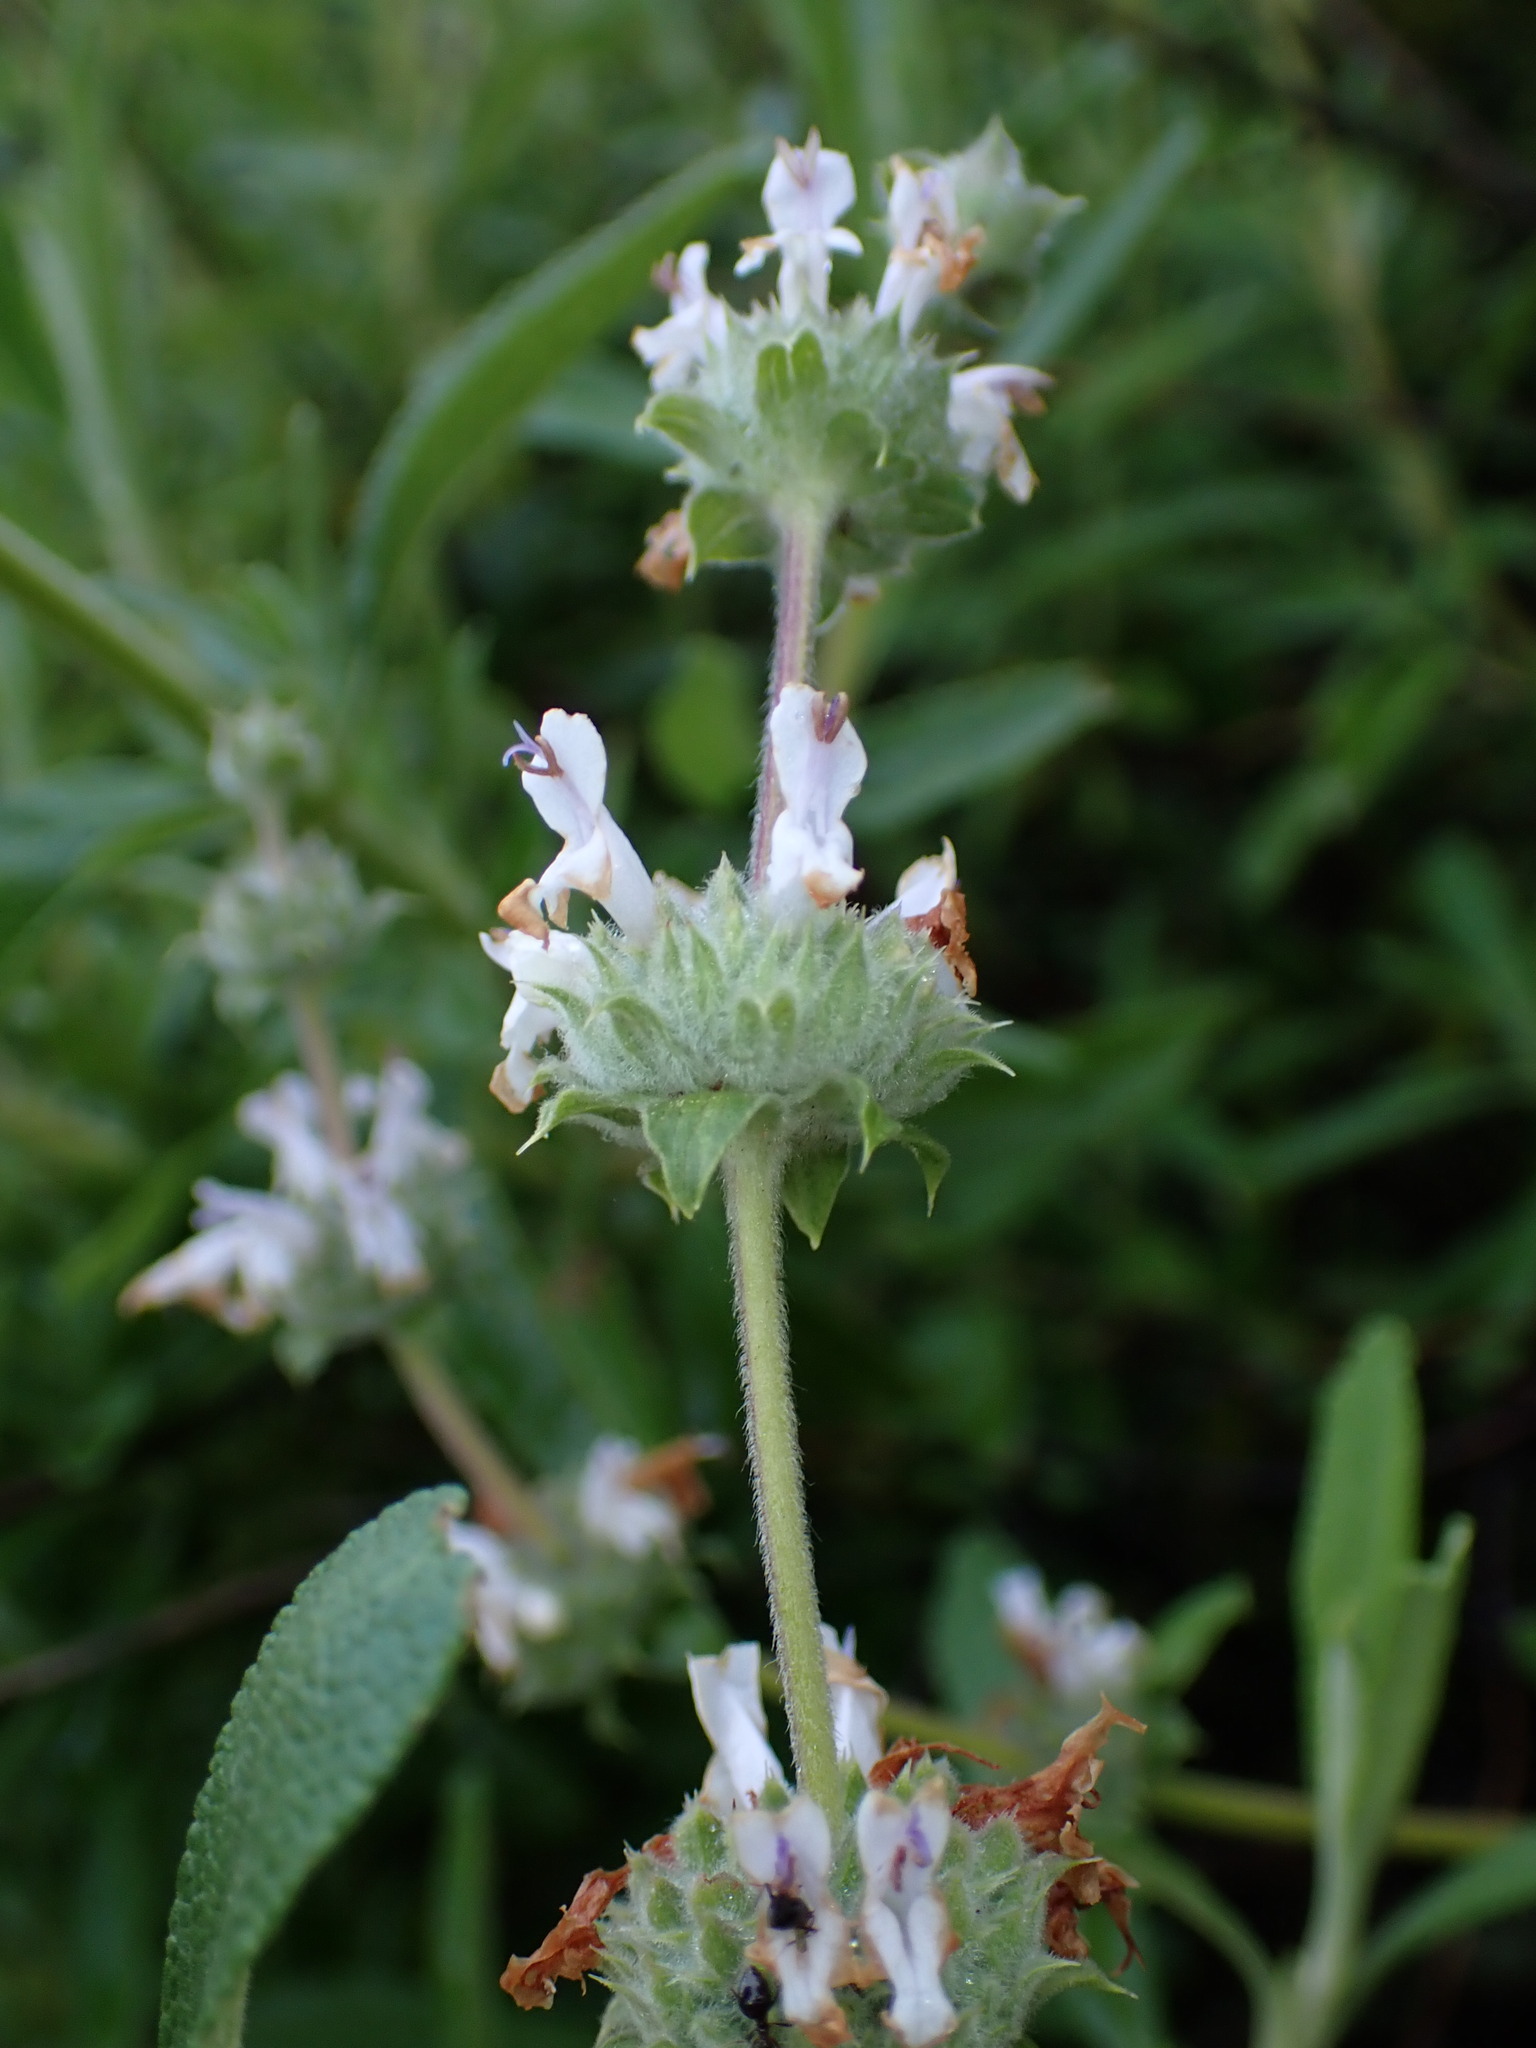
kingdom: Plantae
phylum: Tracheophyta
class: Magnoliopsida
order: Lamiales
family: Lamiaceae
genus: Salvia
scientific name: Salvia mellifera
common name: Black sage
